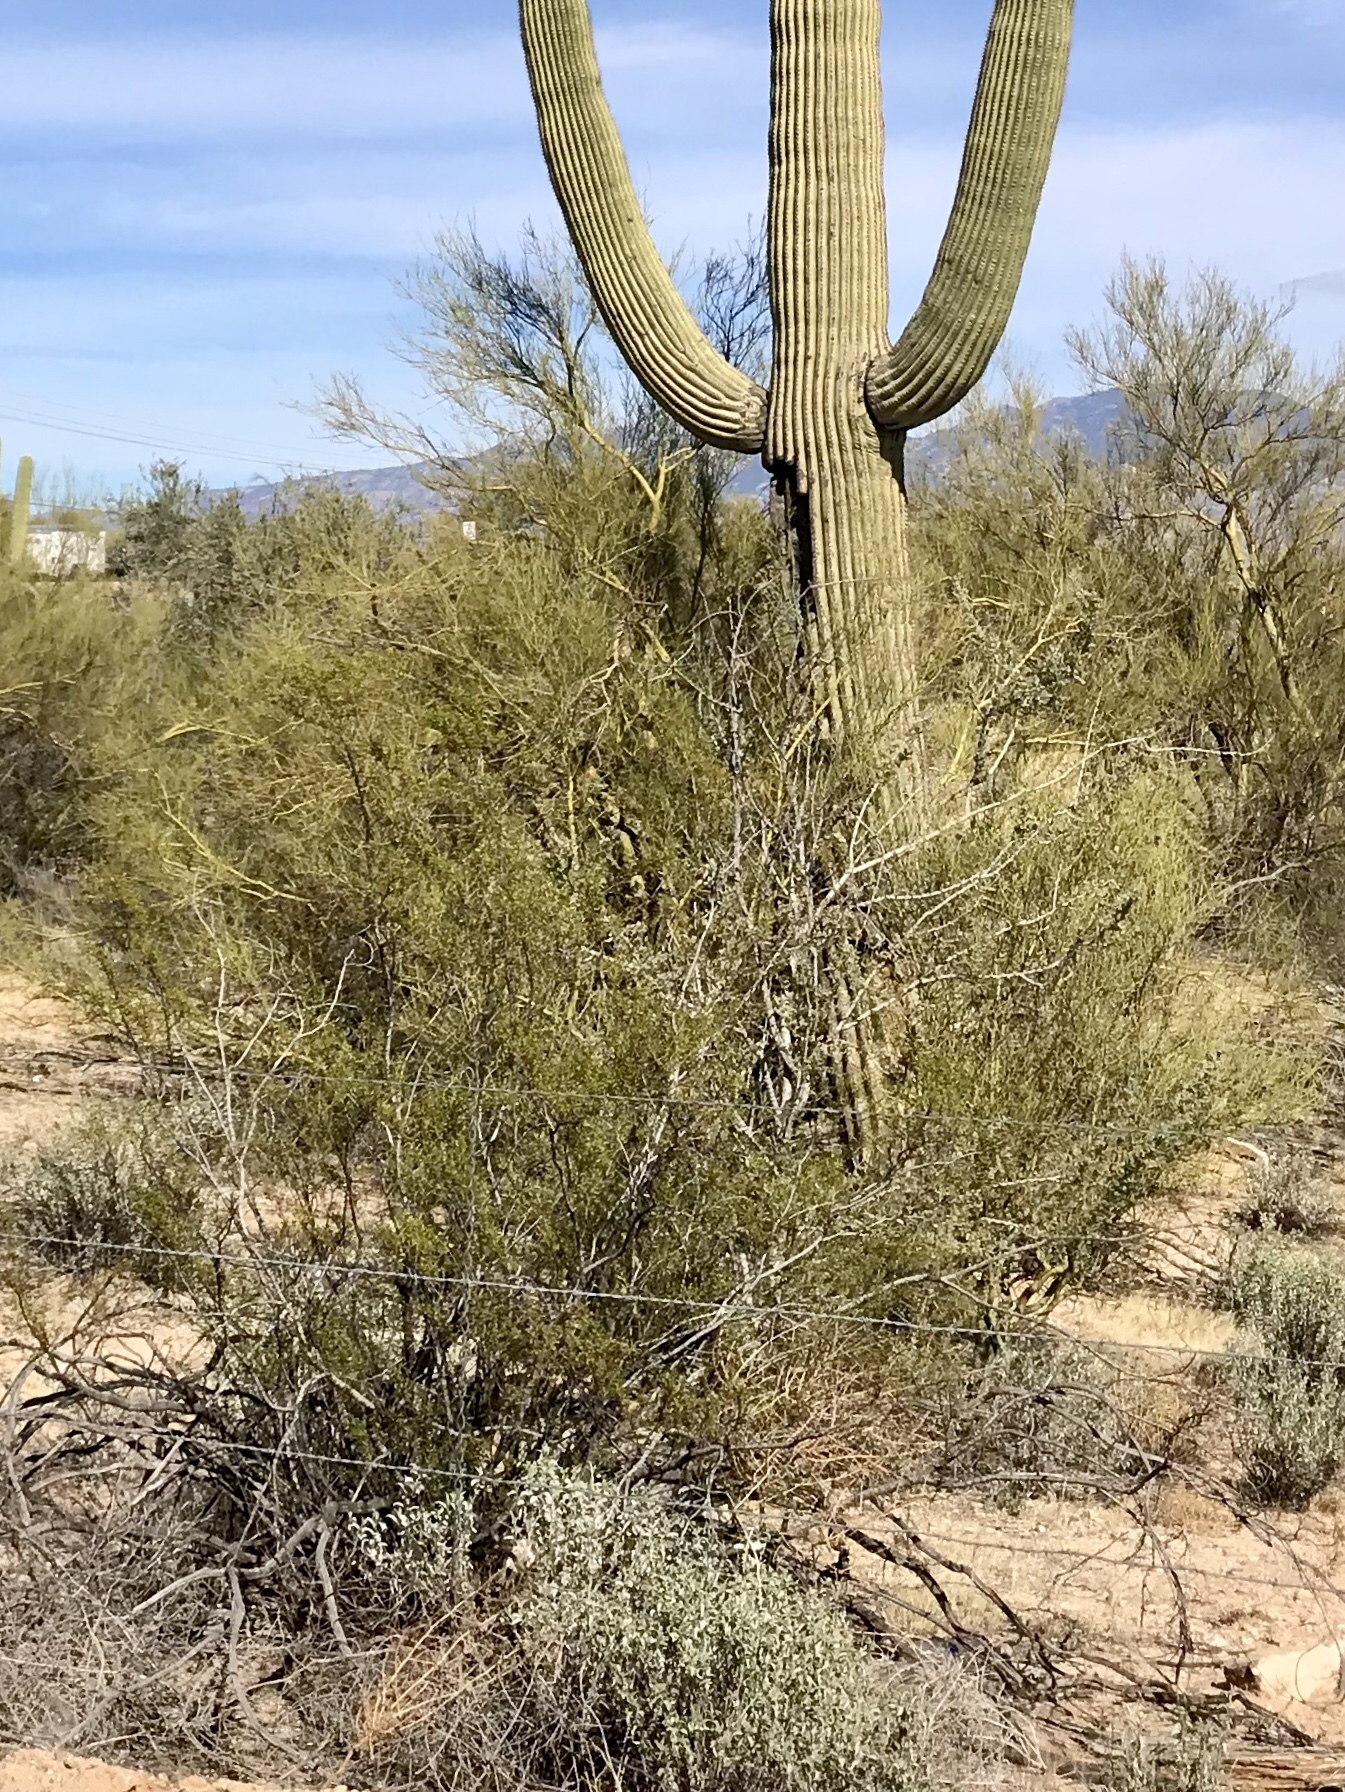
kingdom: Plantae
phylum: Tracheophyta
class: Magnoliopsida
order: Zygophyllales
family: Zygophyllaceae
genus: Larrea
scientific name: Larrea tridentata
